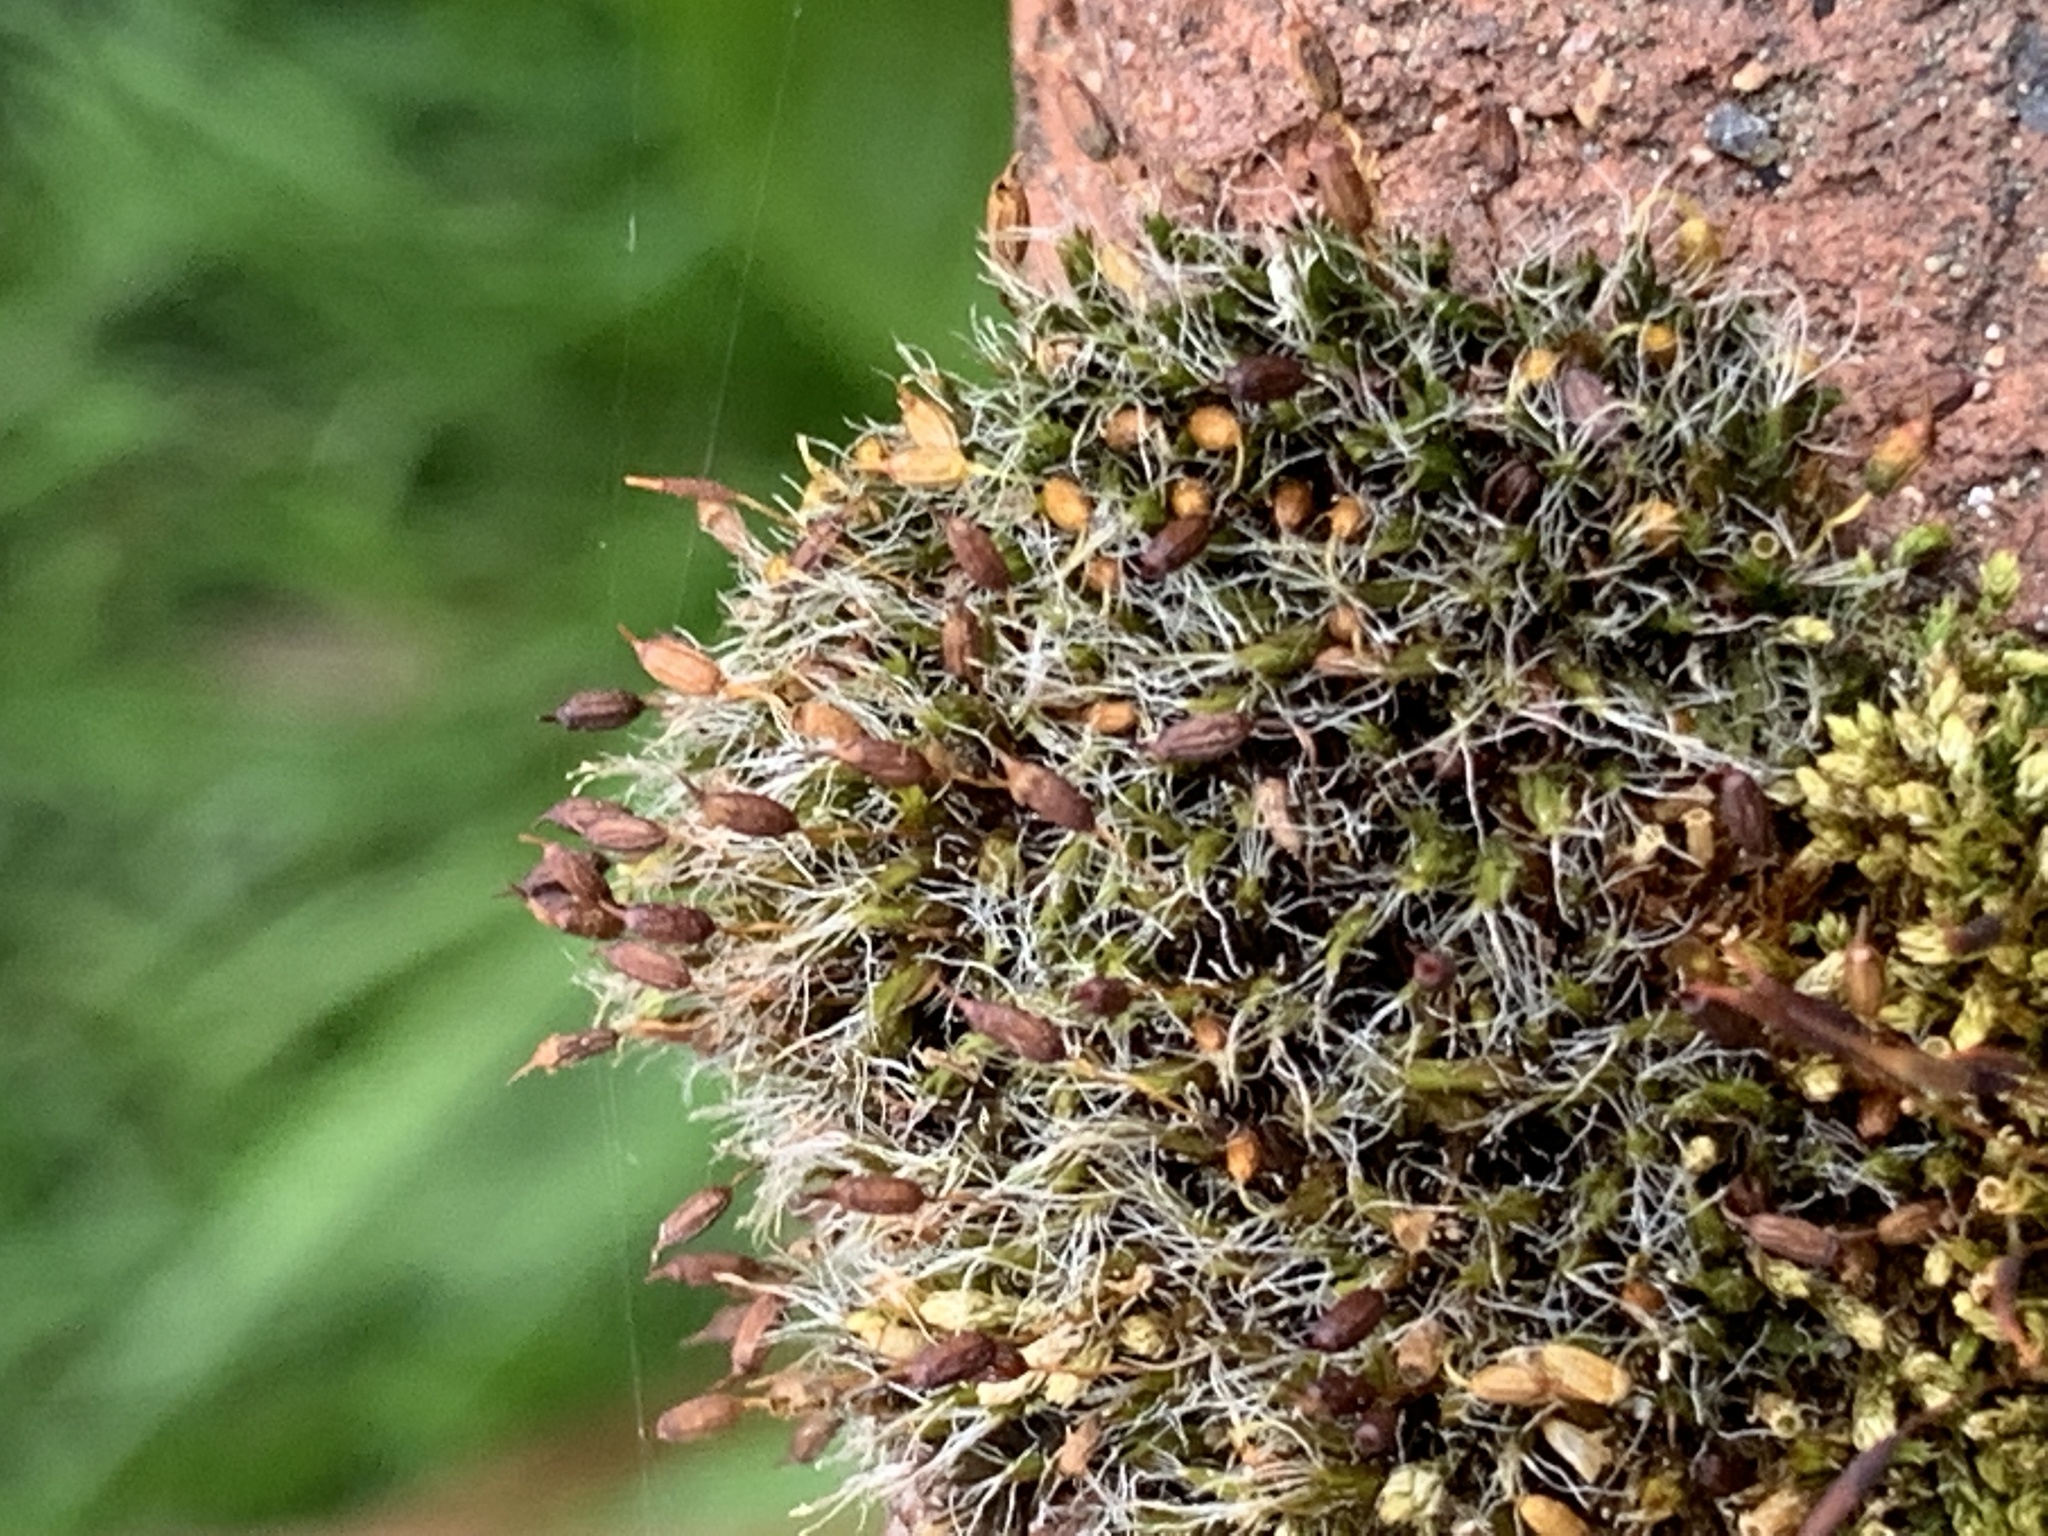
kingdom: Plantae
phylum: Bryophyta
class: Bryopsida
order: Grimmiales
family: Grimmiaceae
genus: Grimmia
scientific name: Grimmia pulvinata
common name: Grey-cushioned grimmia
